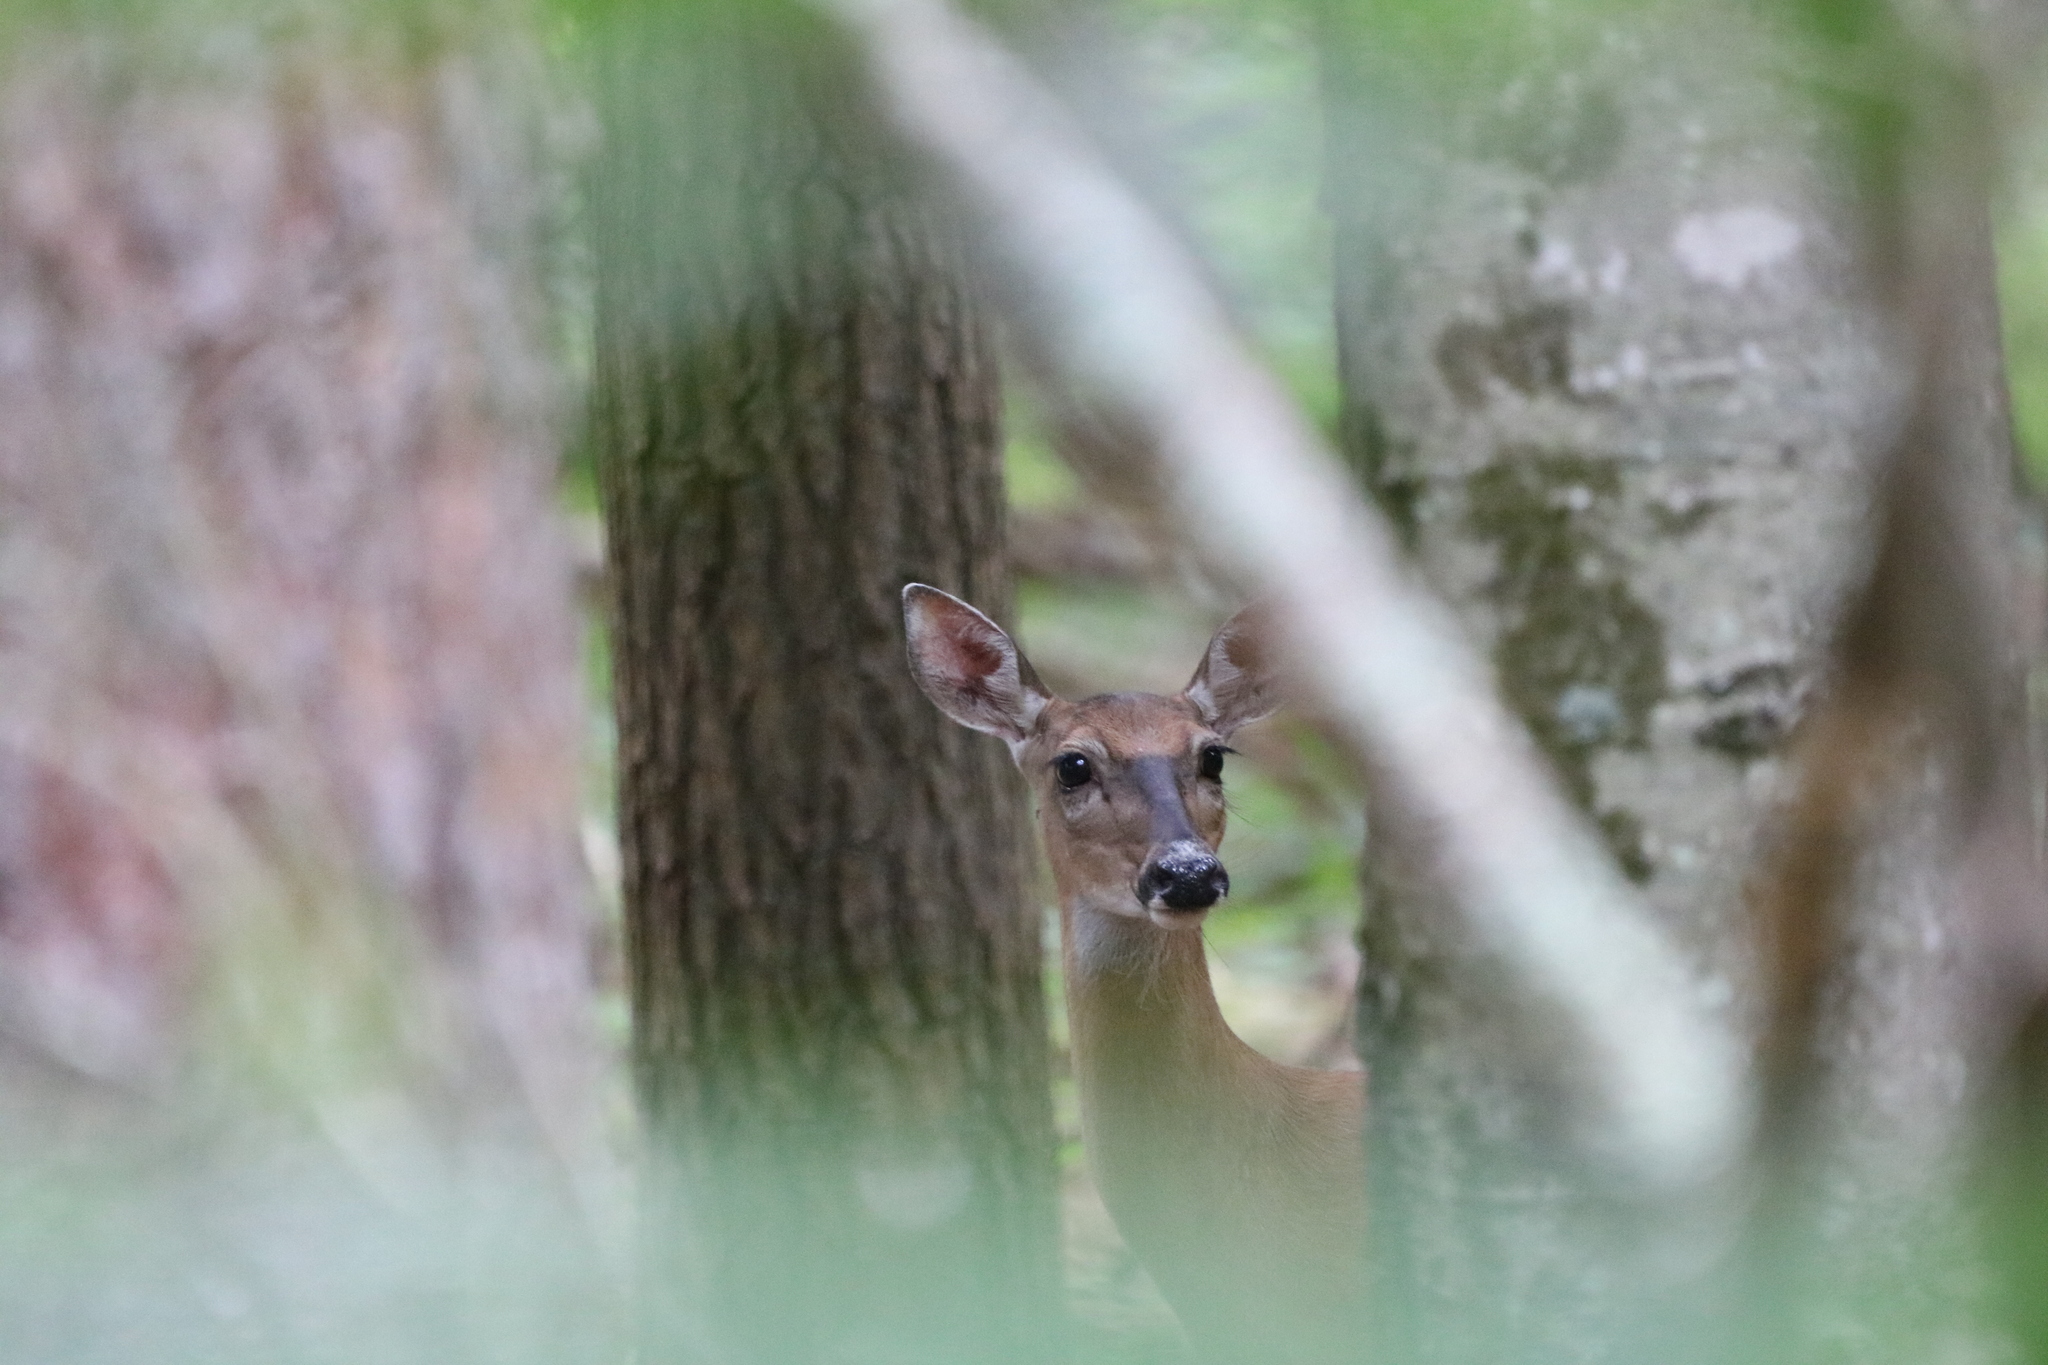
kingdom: Animalia
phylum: Chordata
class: Mammalia
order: Artiodactyla
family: Cervidae
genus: Odocoileus
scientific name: Odocoileus virginianus
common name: White-tailed deer
